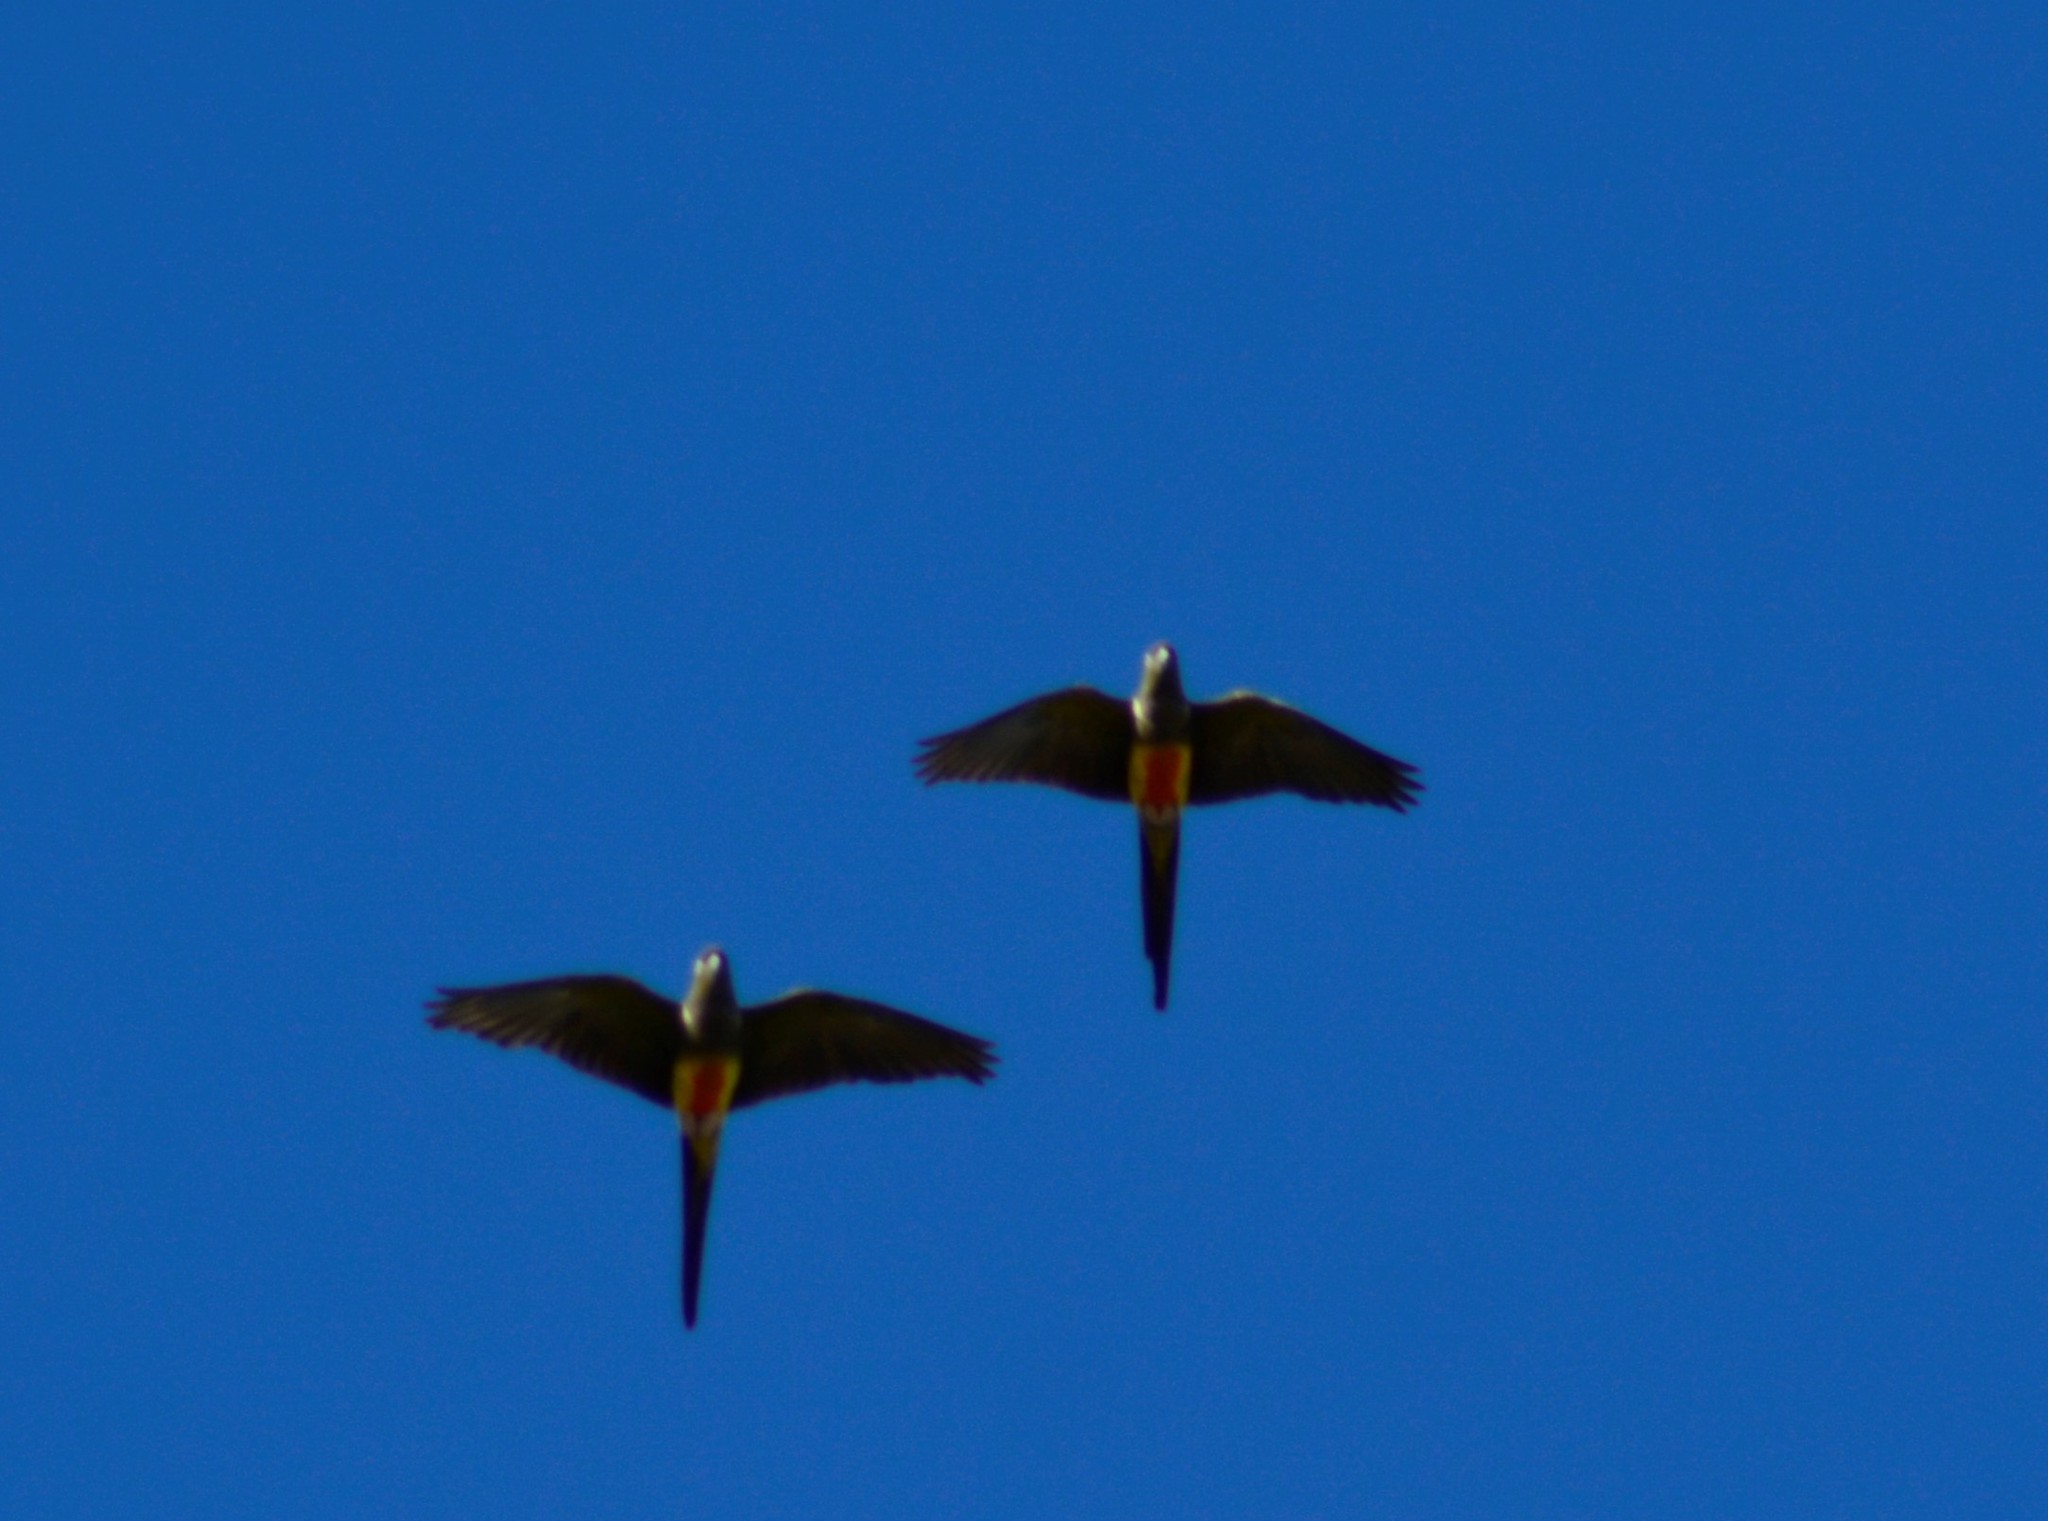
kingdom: Animalia
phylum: Chordata
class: Aves
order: Psittaciformes
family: Psittacidae
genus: Cyanoliseus
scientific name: Cyanoliseus patagonus
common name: Burrowing parrot
